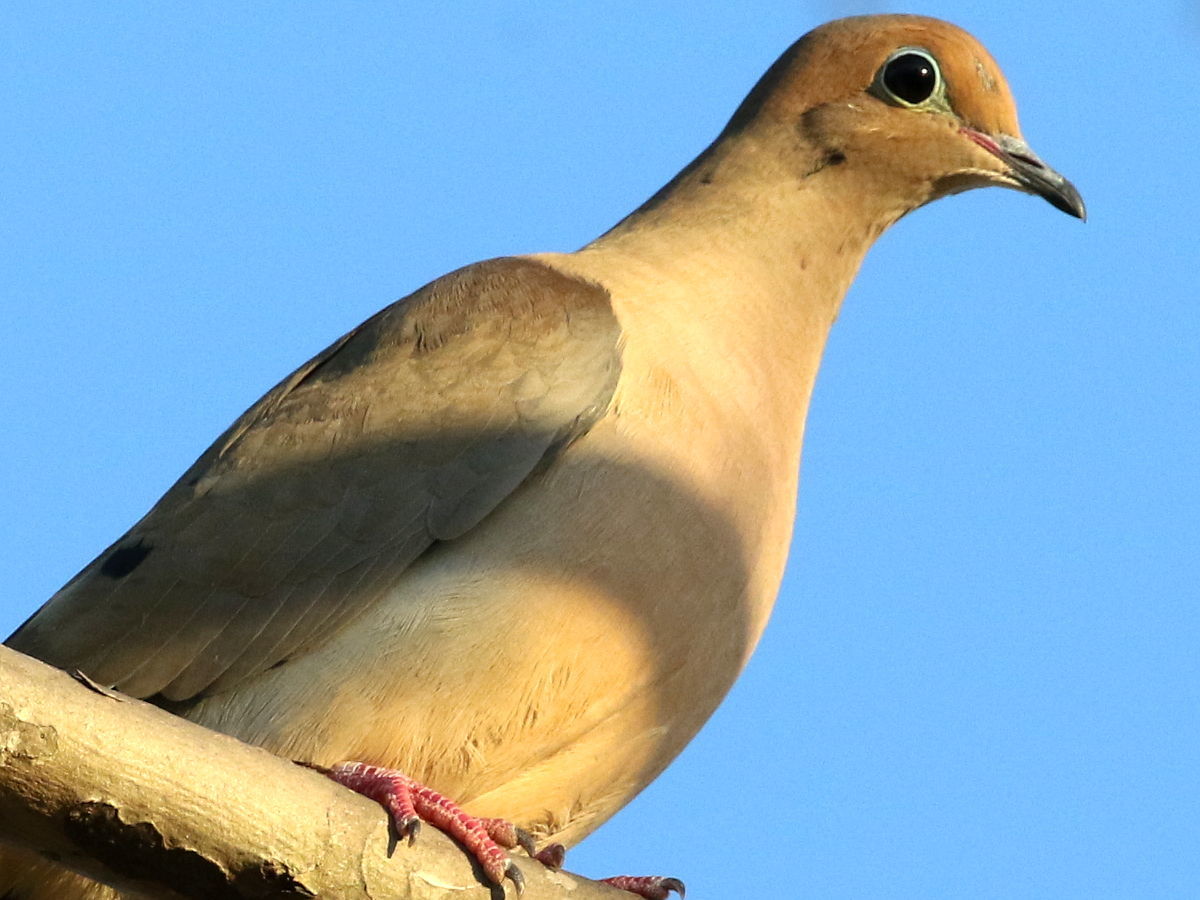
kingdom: Animalia
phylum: Chordata
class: Aves
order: Columbiformes
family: Columbidae
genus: Zenaida
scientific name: Zenaida macroura
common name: Mourning dove
